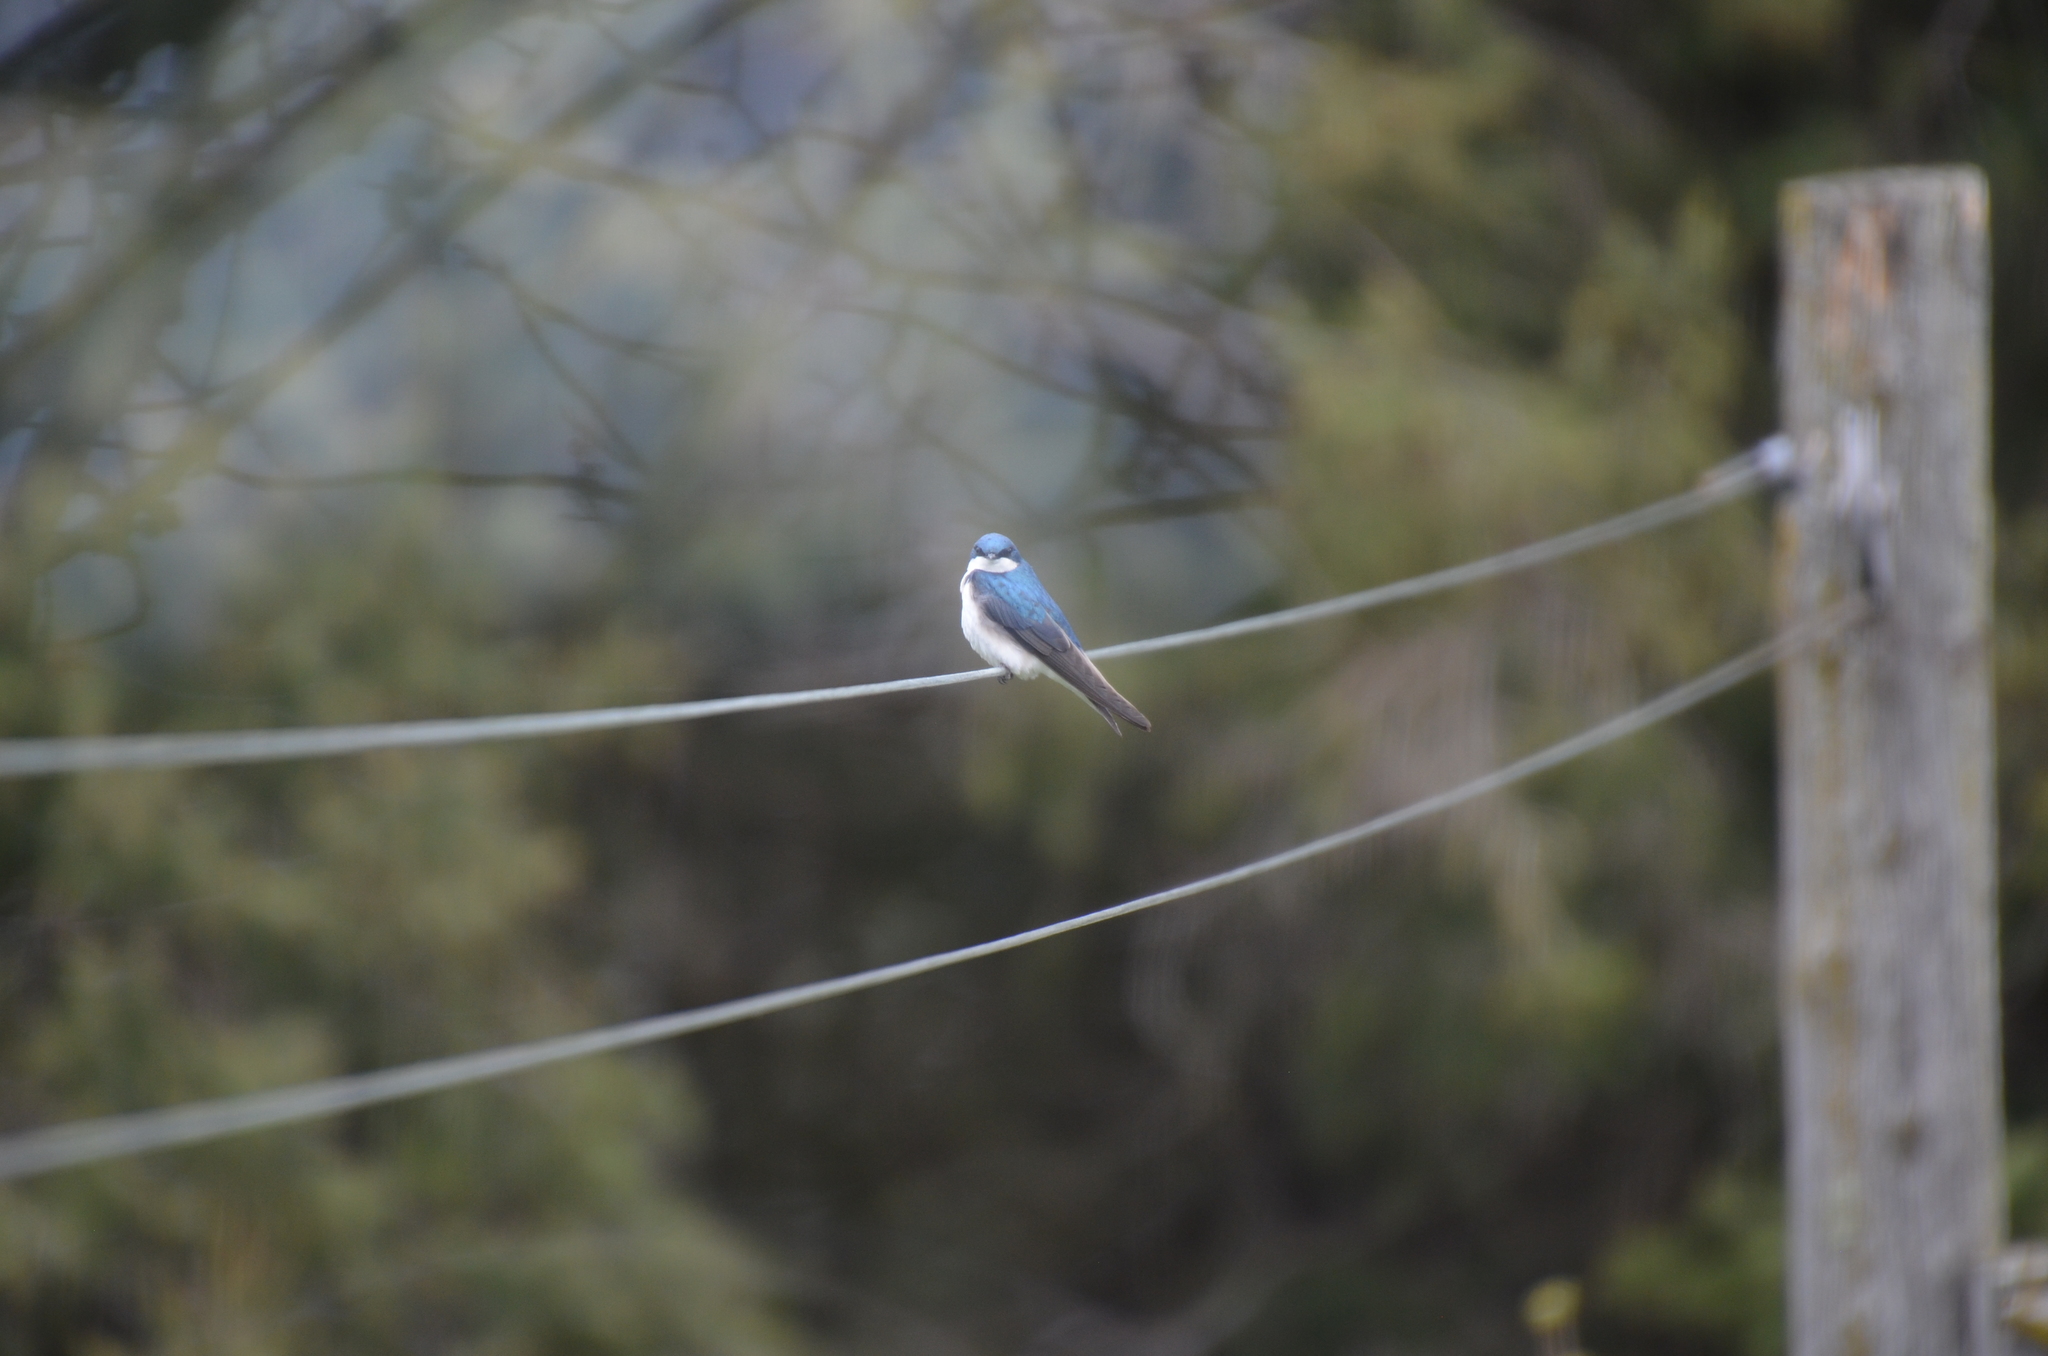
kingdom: Animalia
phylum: Chordata
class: Aves
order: Passeriformes
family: Hirundinidae
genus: Tachycineta
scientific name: Tachycineta bicolor
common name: Tree swallow
